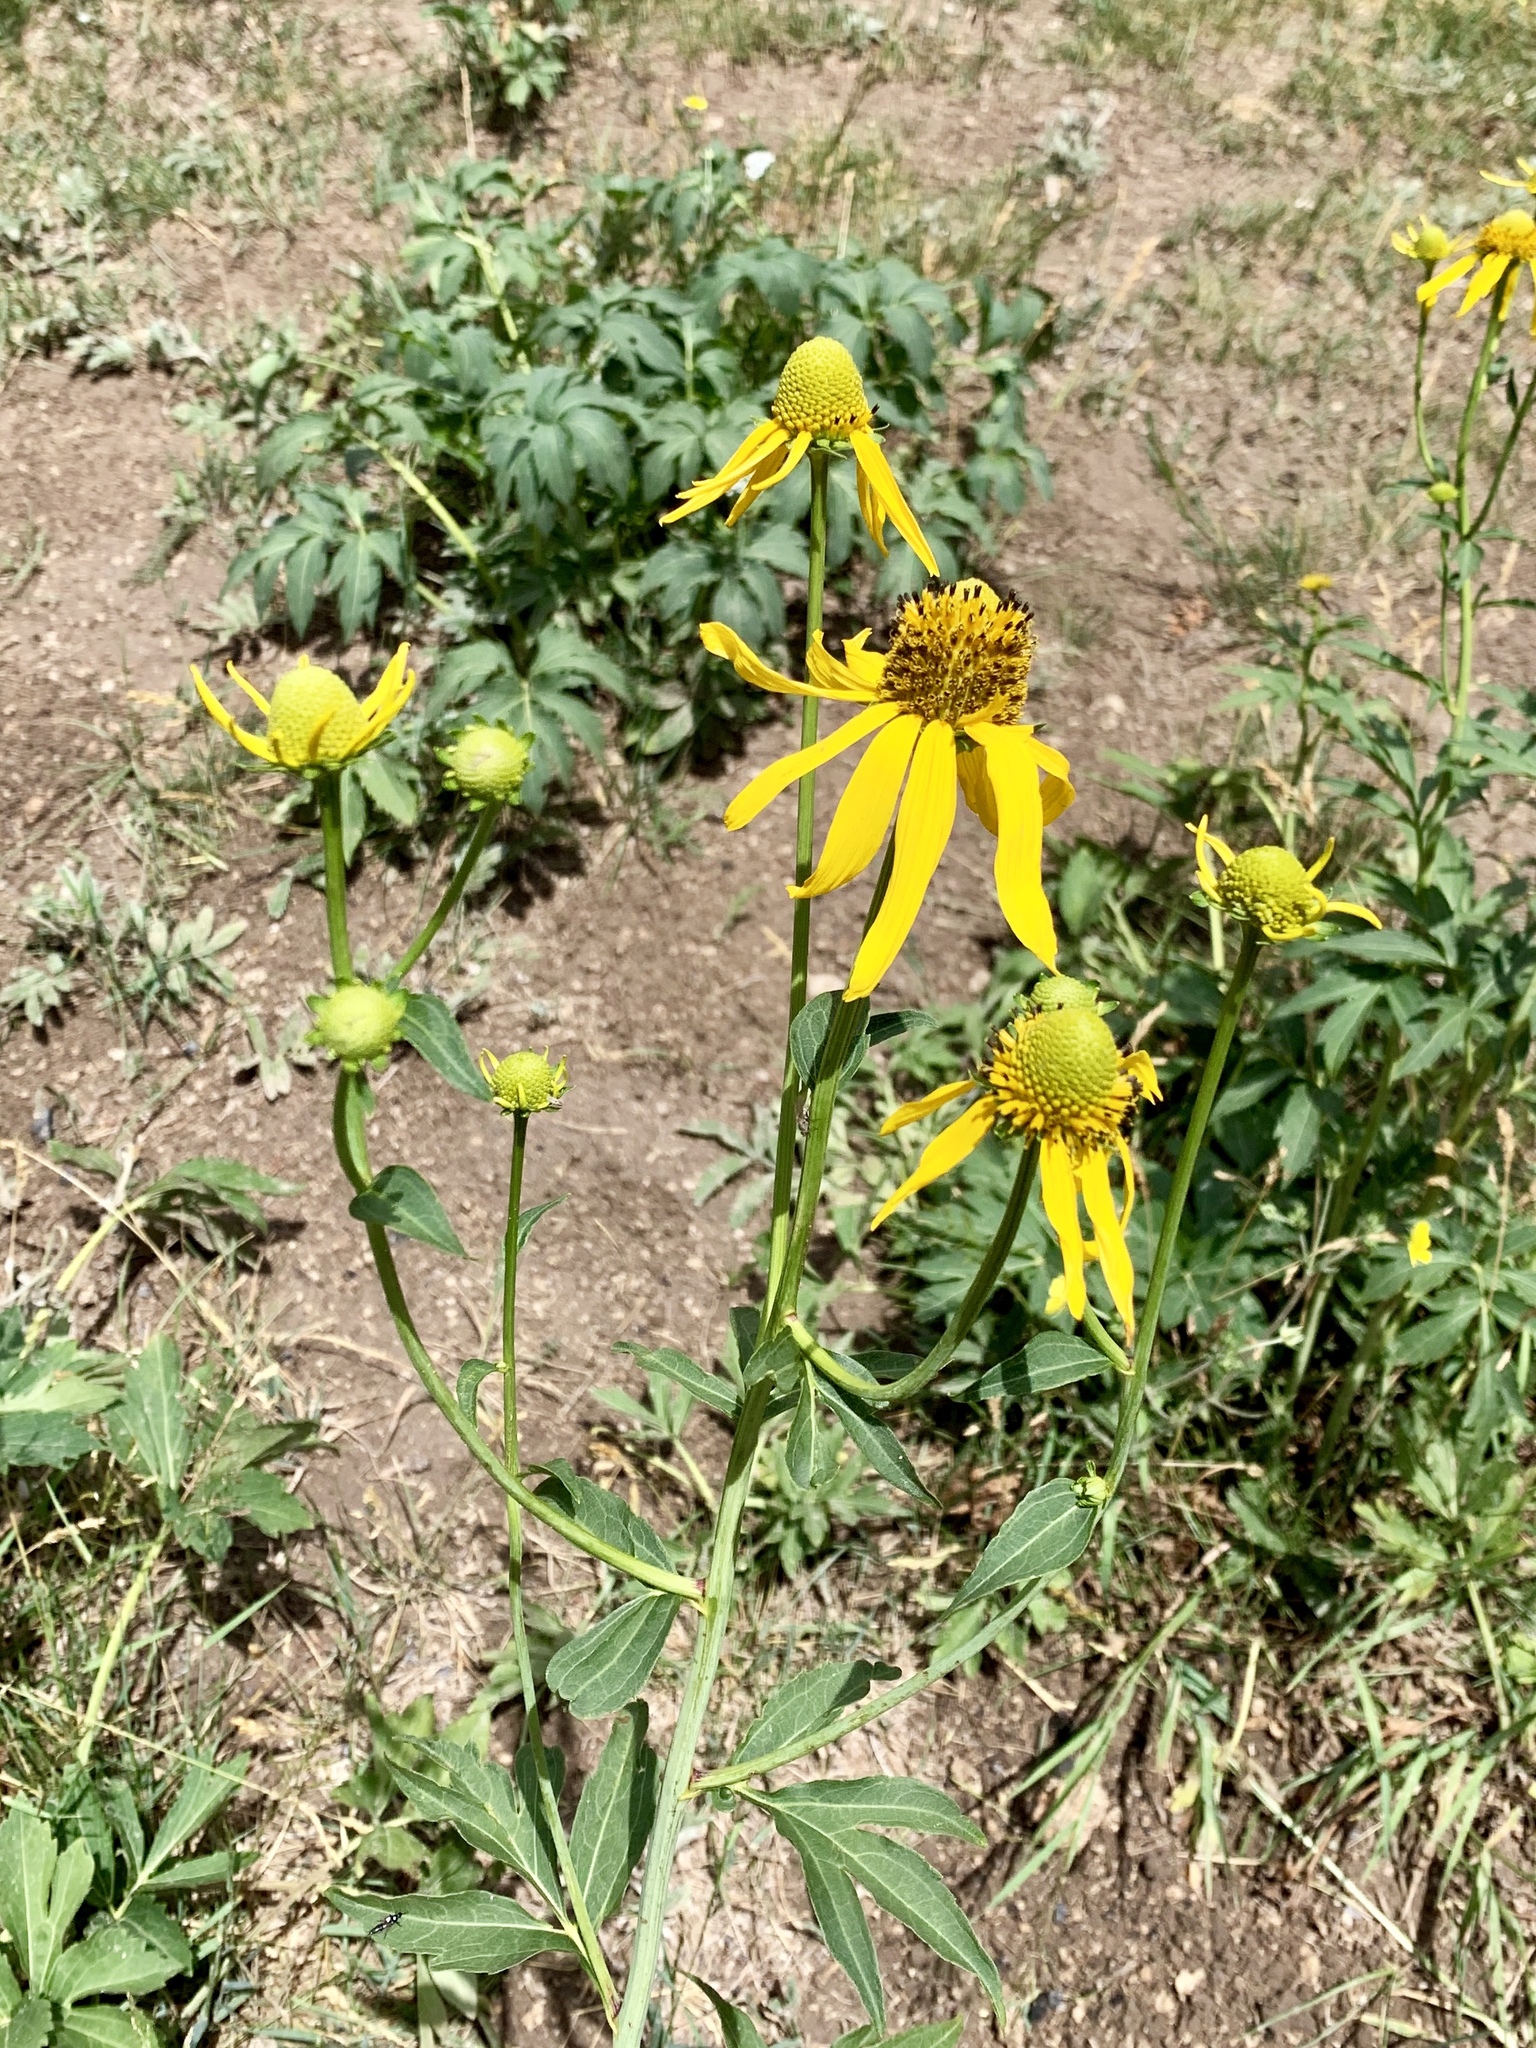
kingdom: Plantae
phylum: Tracheophyta
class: Magnoliopsida
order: Asterales
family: Asteraceae
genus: Rudbeckia
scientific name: Rudbeckia laciniata
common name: Coneflower
